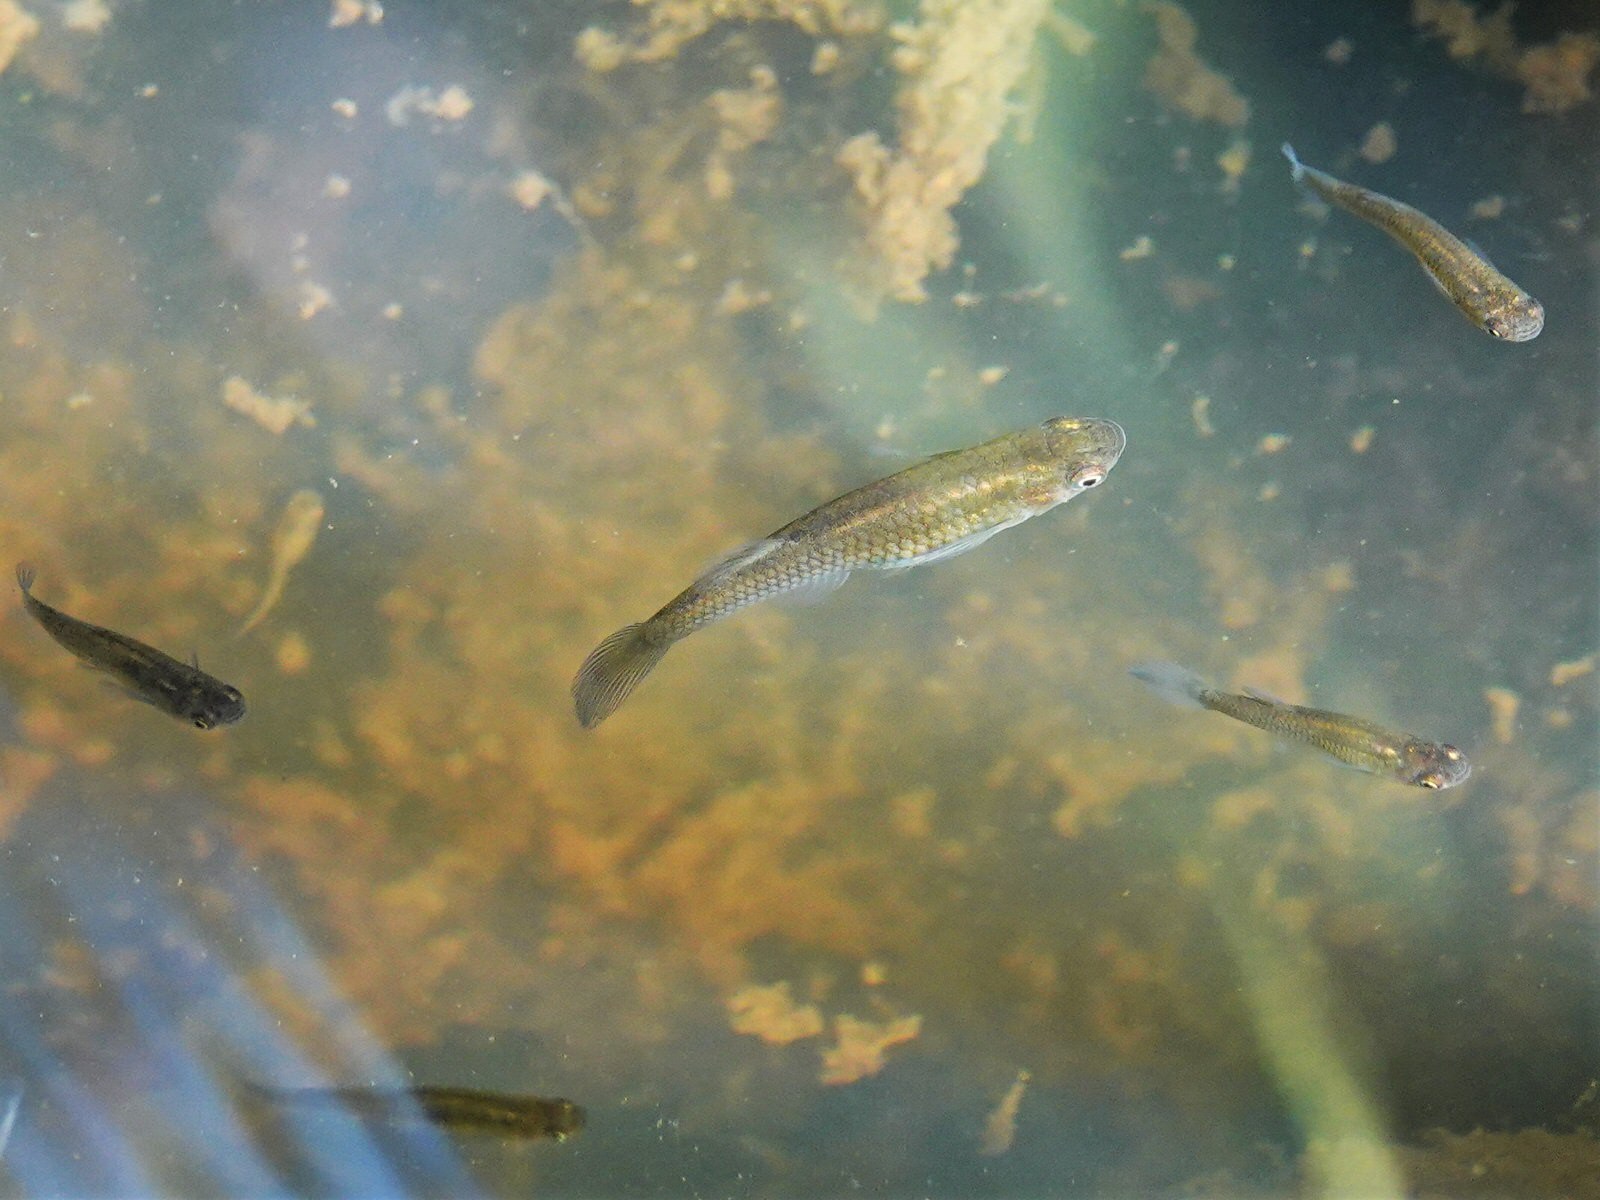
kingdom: Animalia
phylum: Chordata
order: Cyprinodontiformes
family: Poeciliidae
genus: Gambusia
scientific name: Gambusia affinis
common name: Mosquitofish
